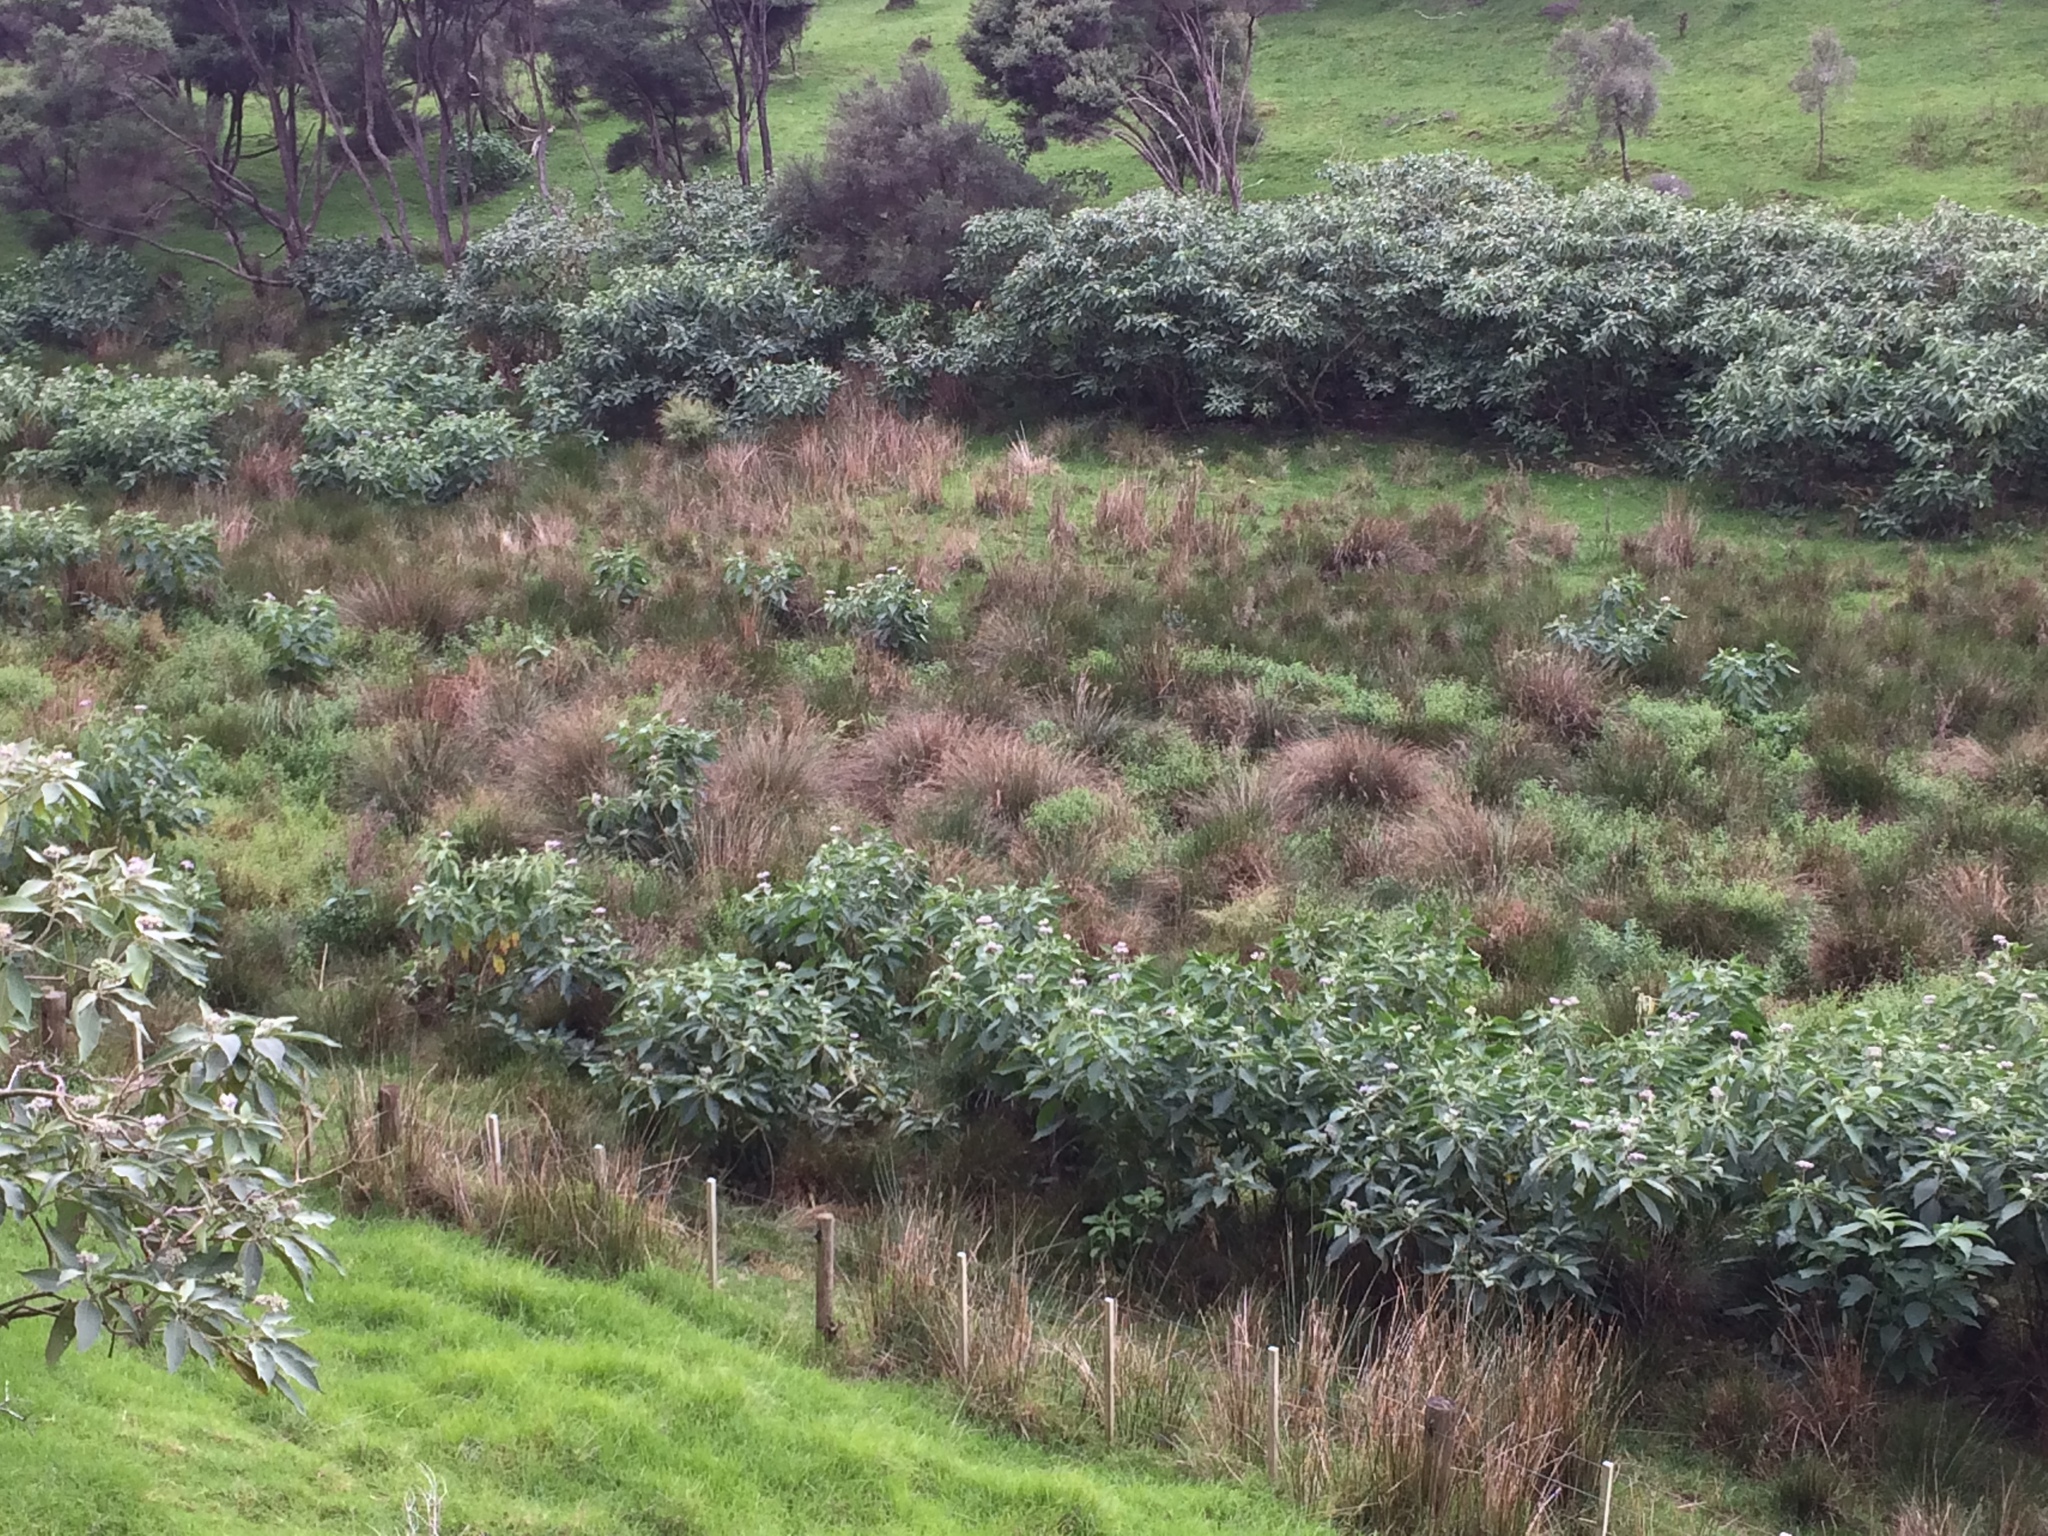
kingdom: Plantae
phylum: Tracheophyta
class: Magnoliopsida
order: Solanales
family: Solanaceae
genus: Solanum
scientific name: Solanum mauritianum
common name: Earleaf nightshade
